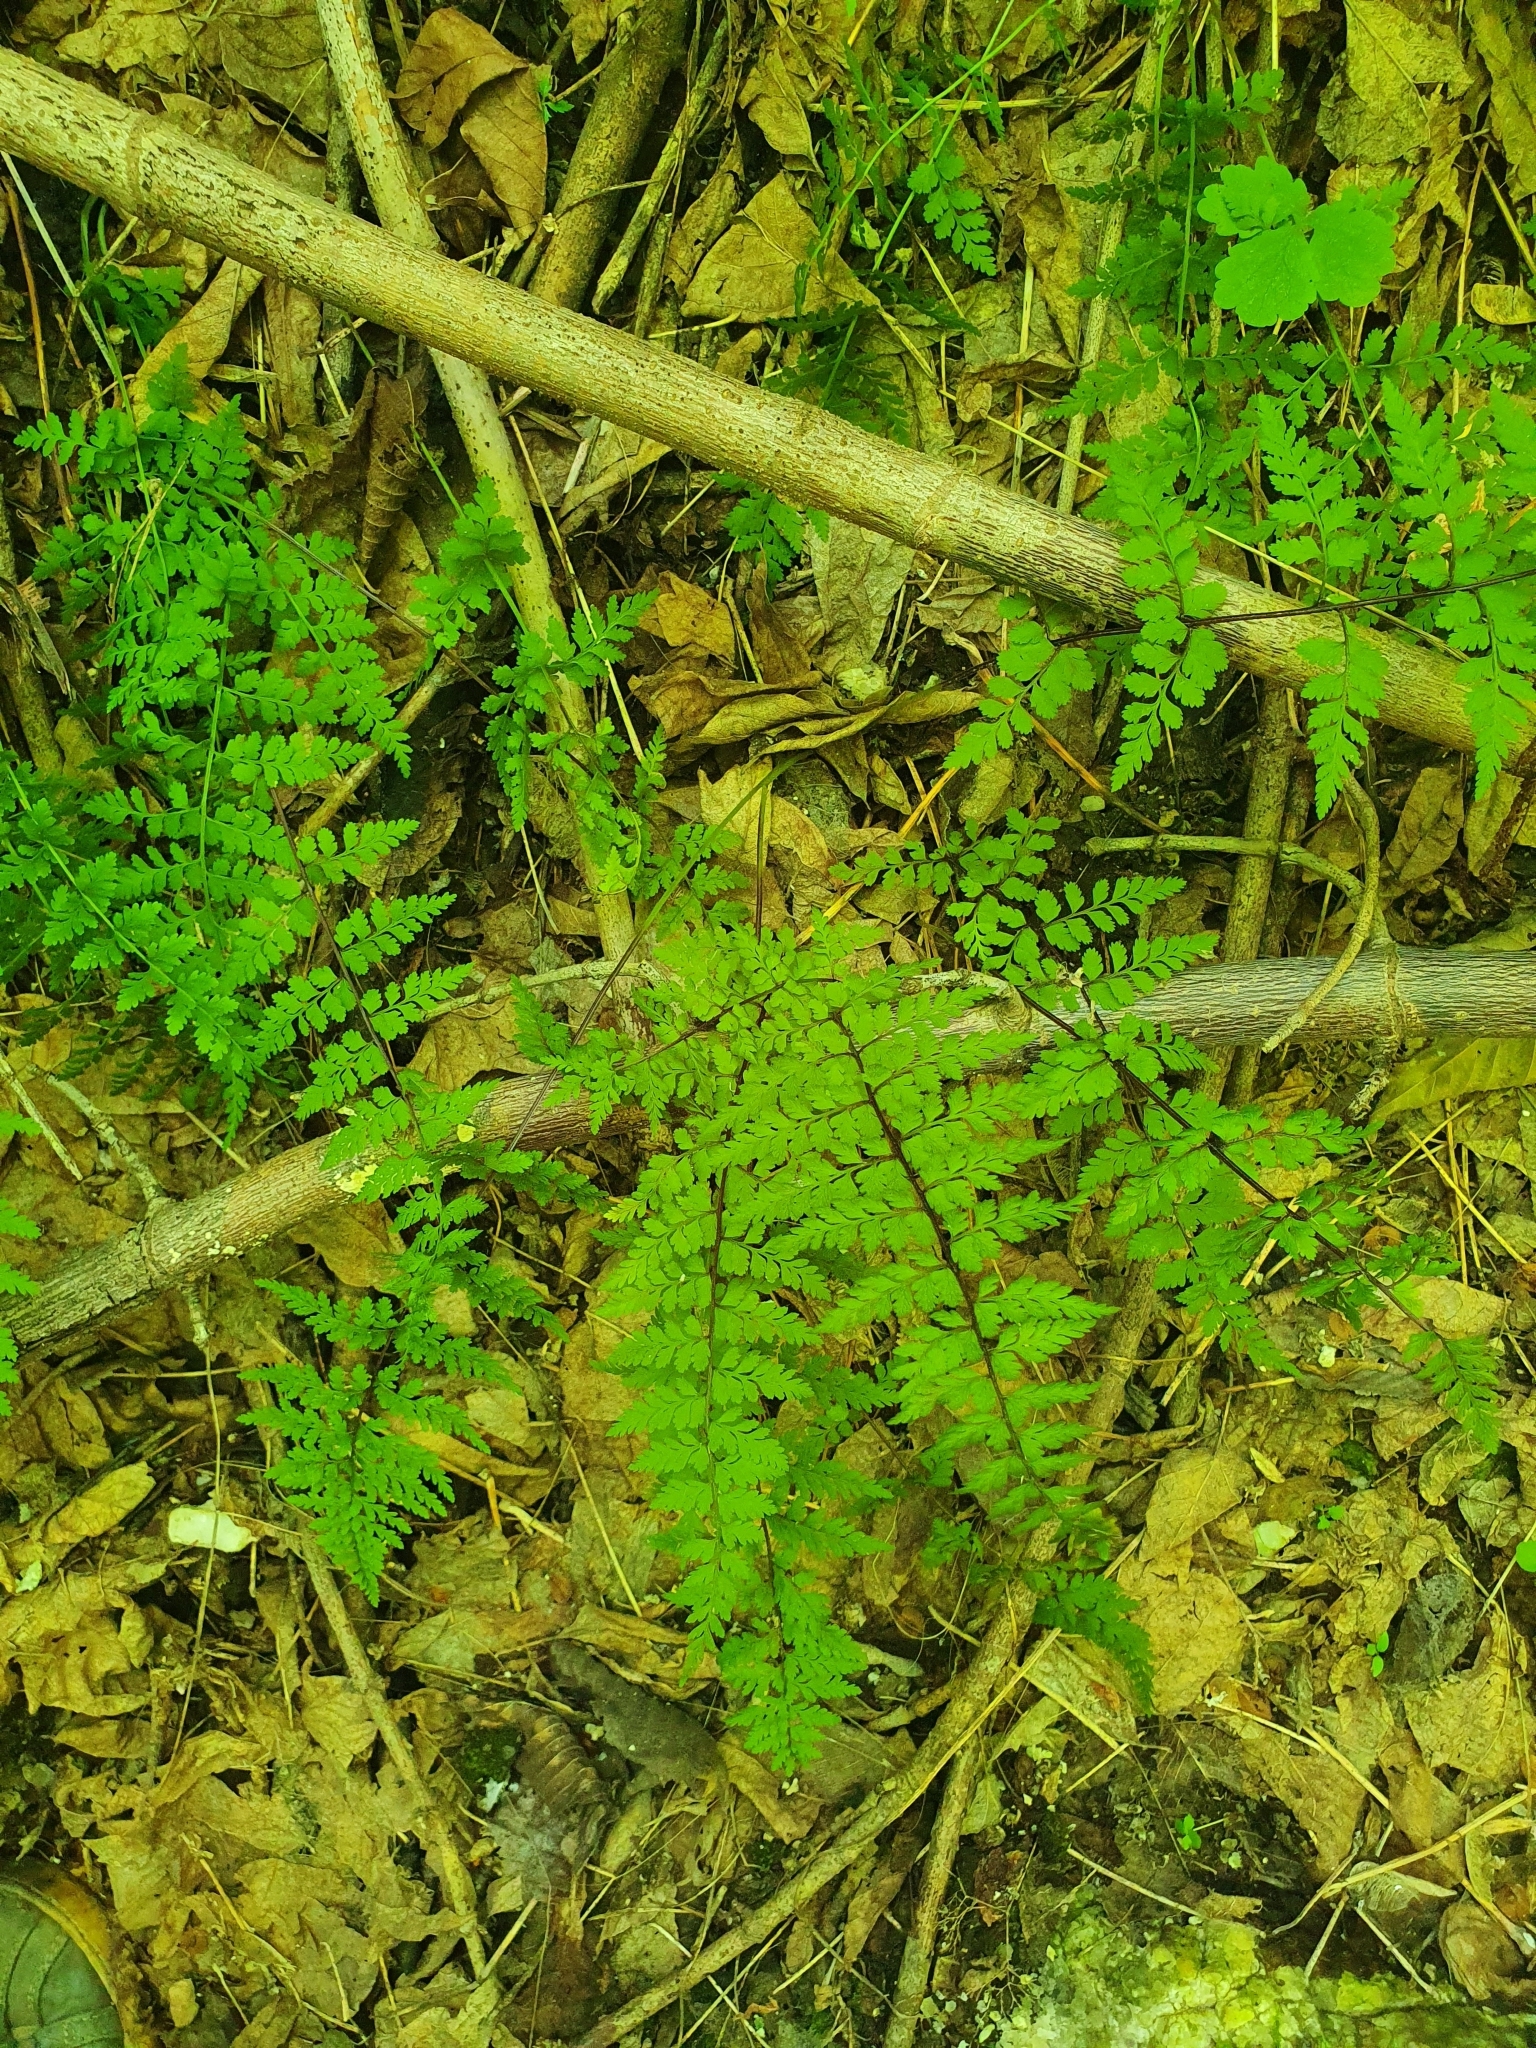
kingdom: Plantae
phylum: Tracheophyta
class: Polypodiopsida
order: Polypodiales
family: Cystopteridaceae
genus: Cystopteris
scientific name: Cystopteris fragilis
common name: Brittle bladder fern
